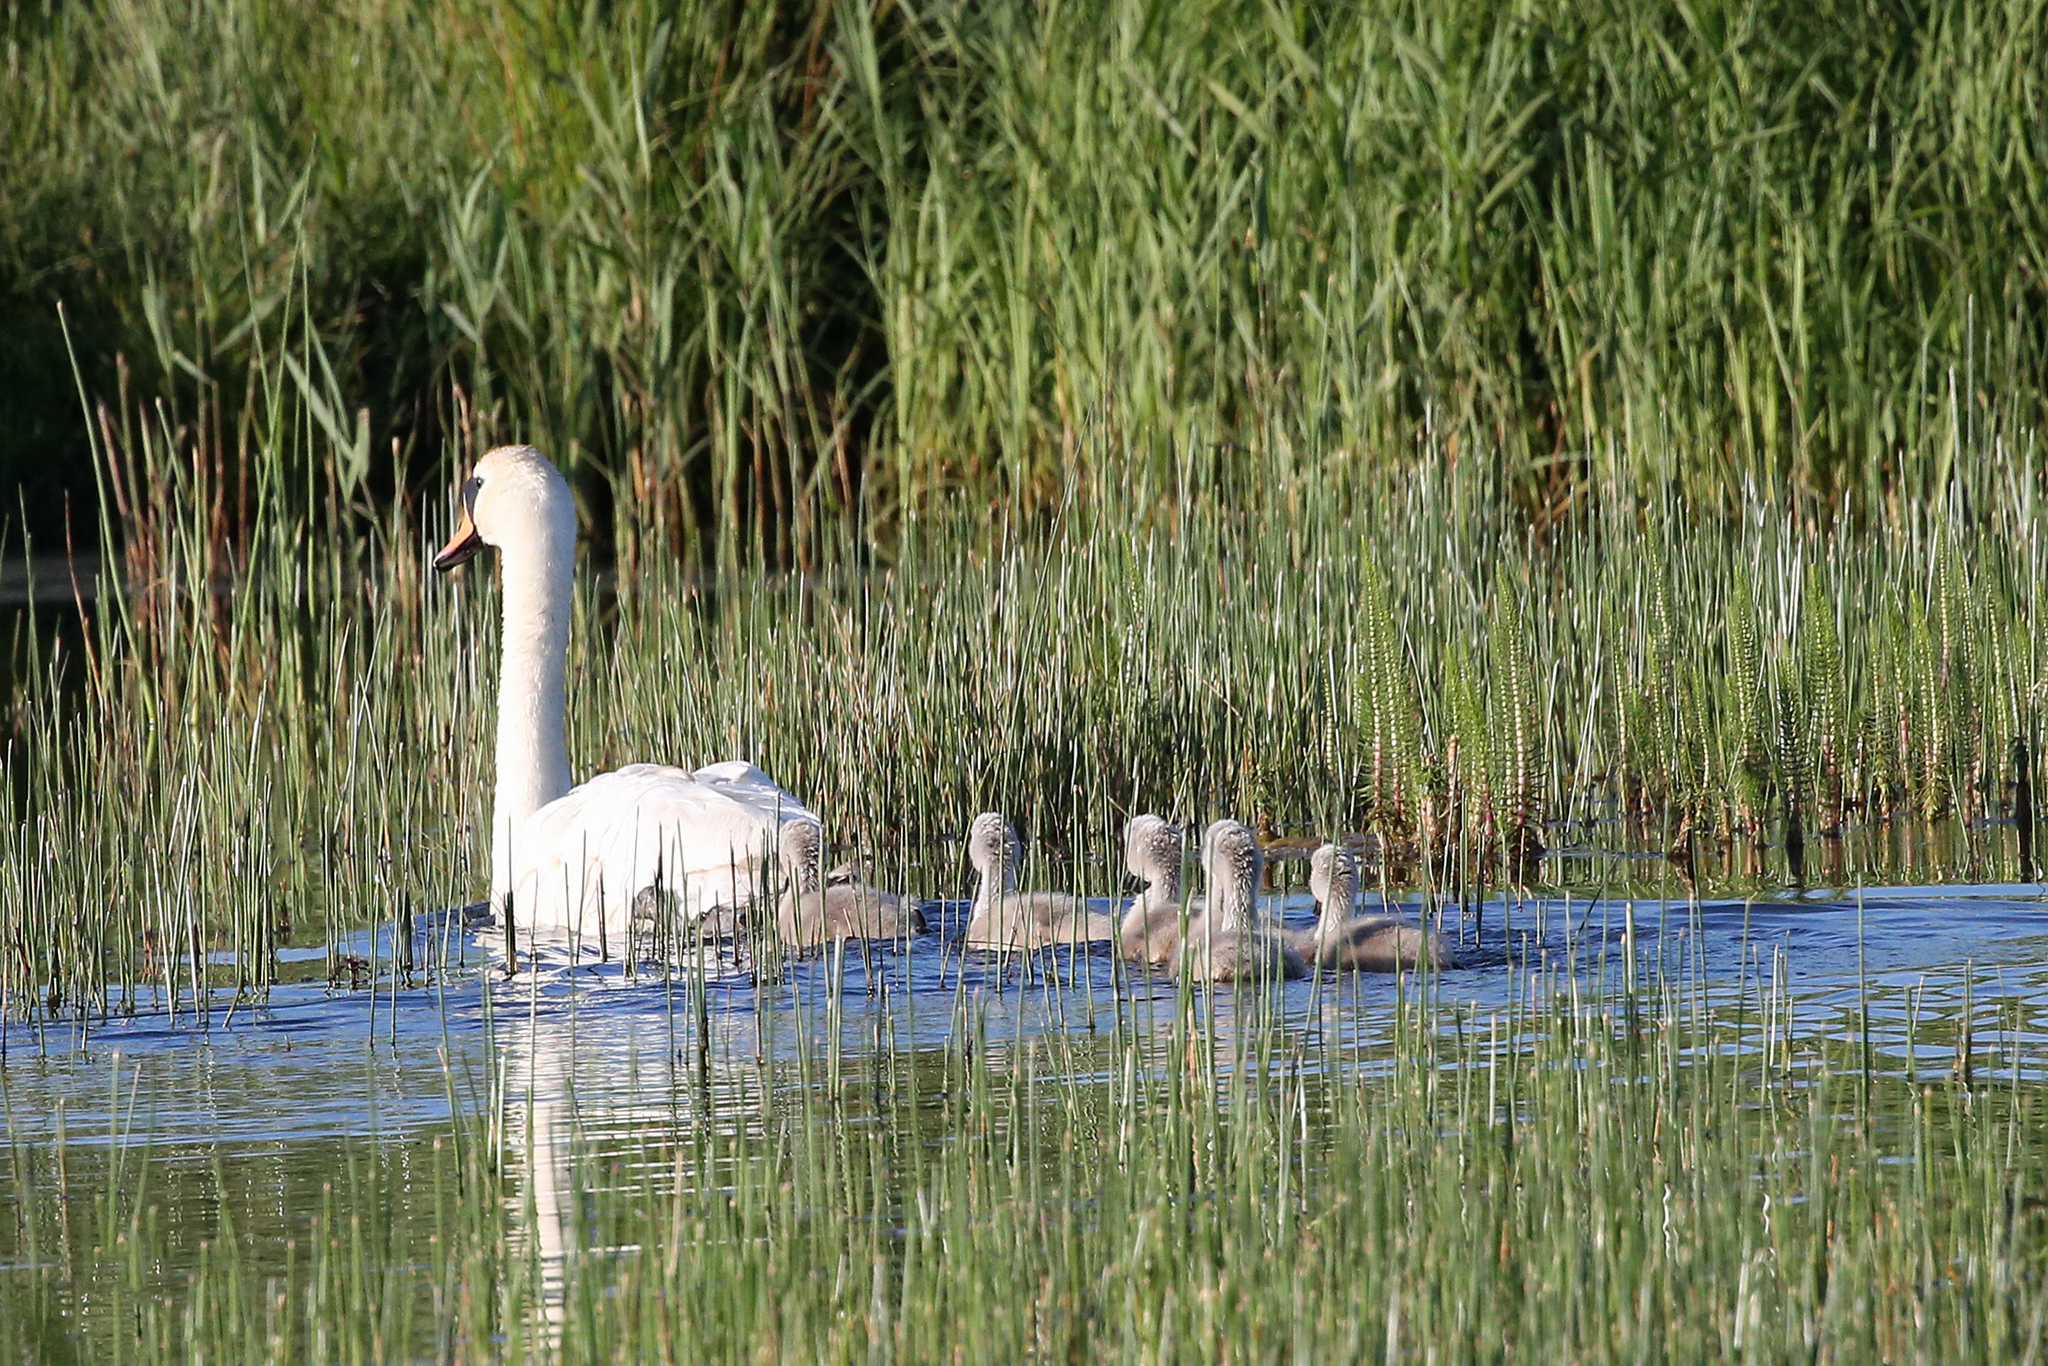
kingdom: Animalia
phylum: Chordata
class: Aves
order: Anseriformes
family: Anatidae
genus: Cygnus
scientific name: Cygnus olor
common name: Mute swan
